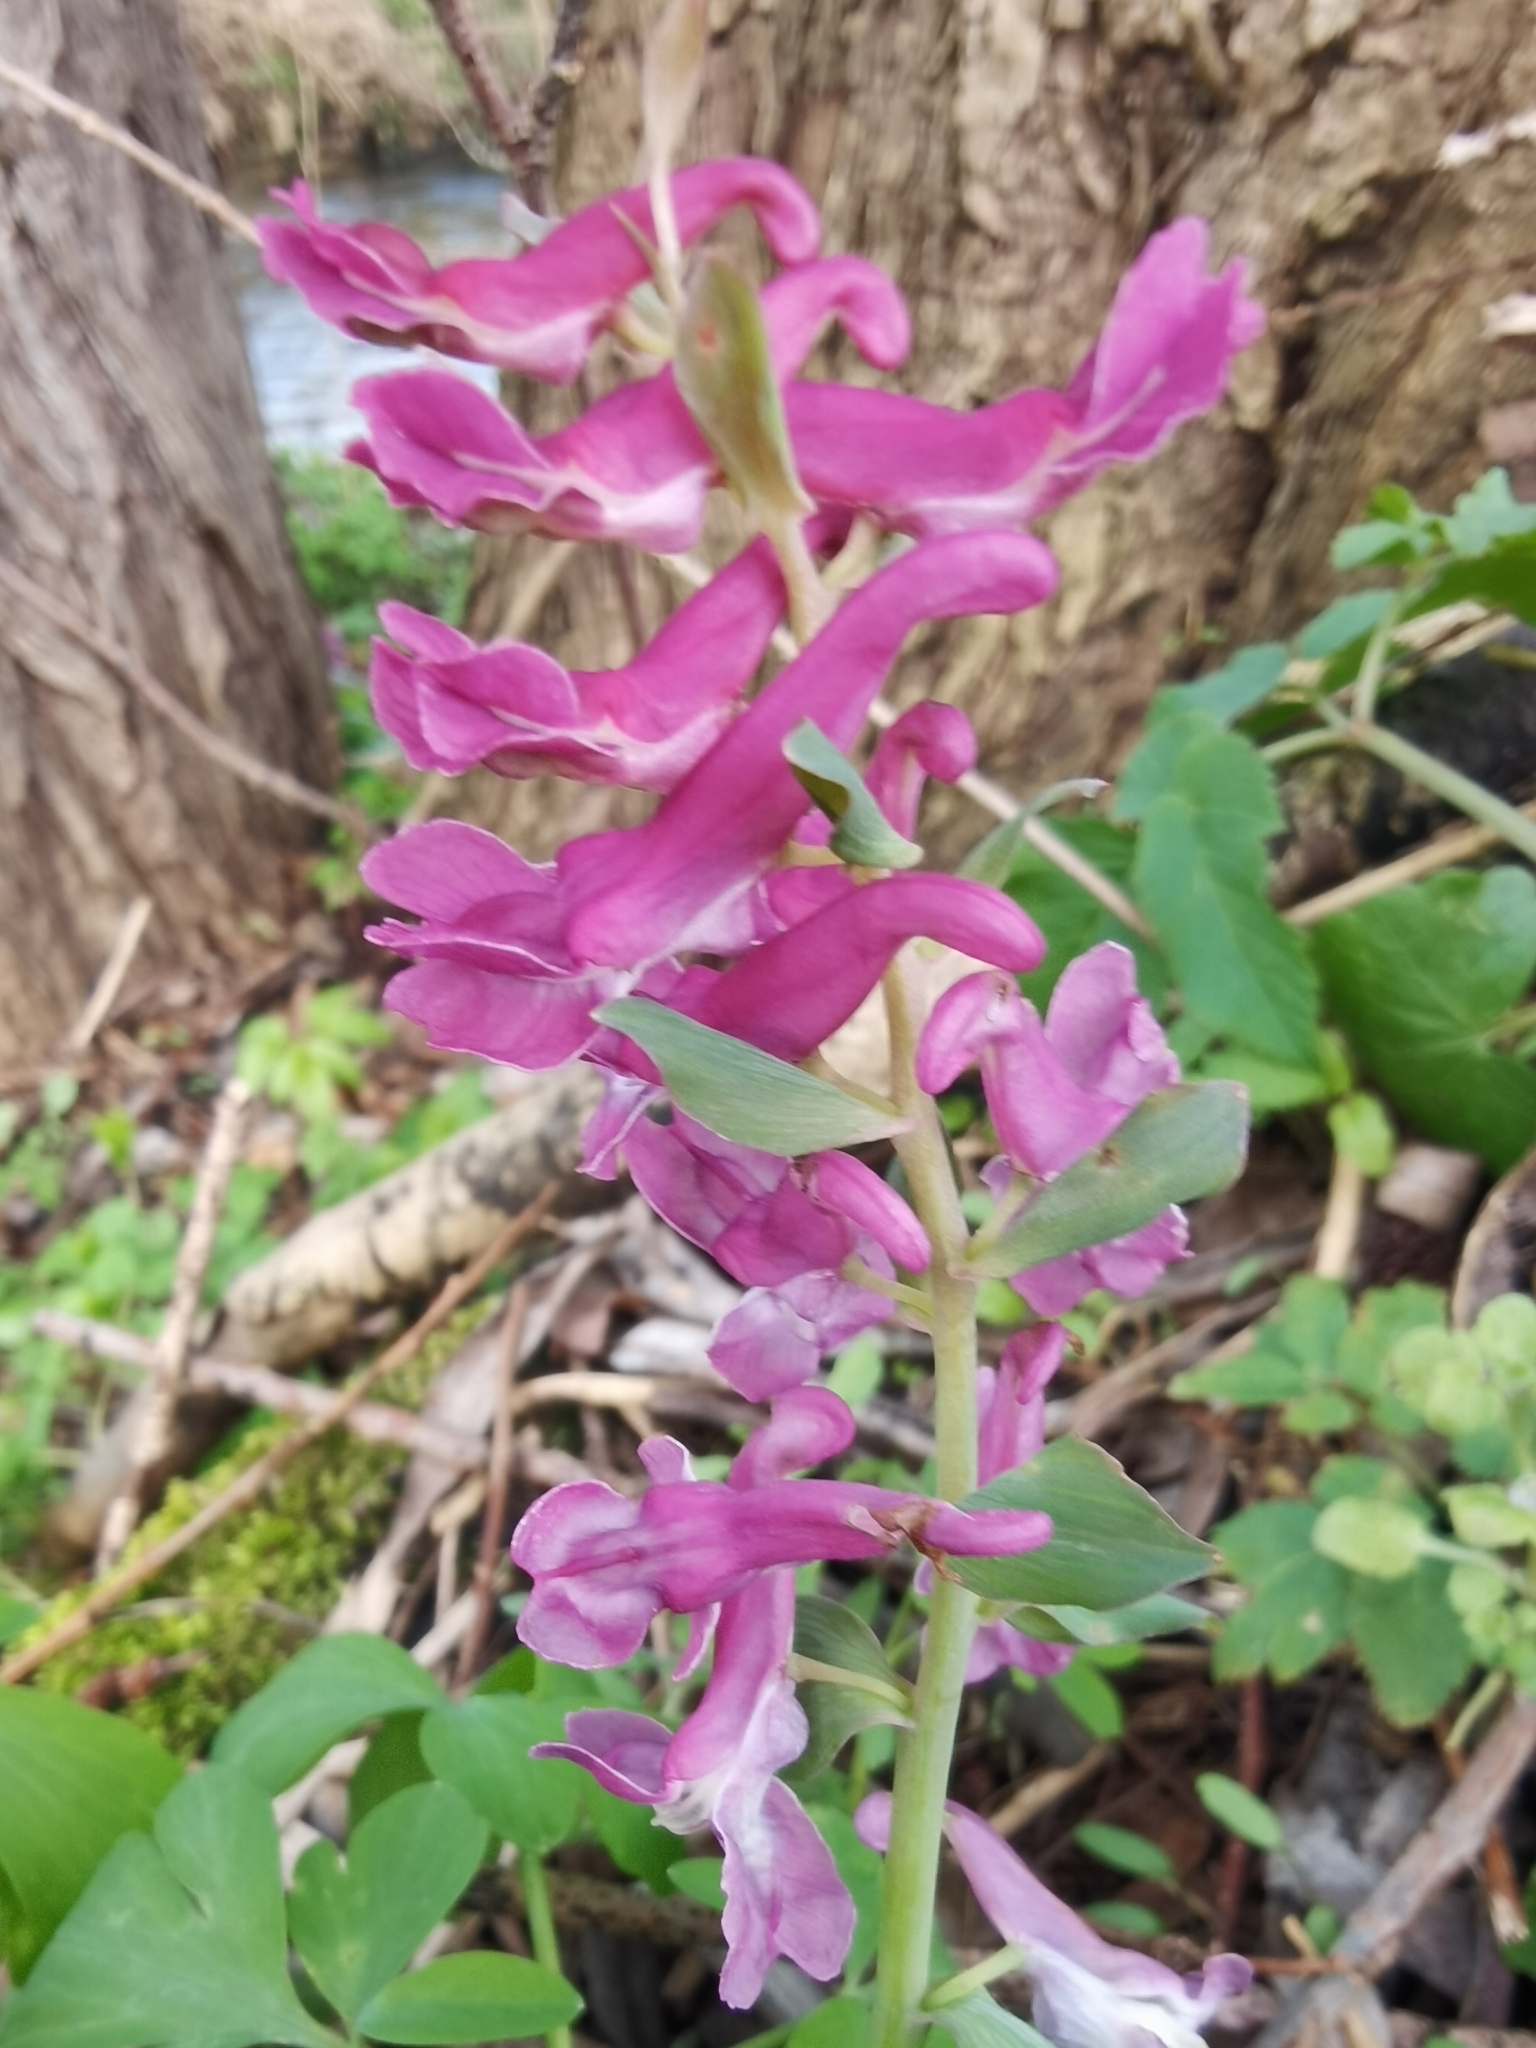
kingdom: Plantae
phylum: Tracheophyta
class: Magnoliopsida
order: Ranunculales
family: Papaveraceae
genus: Corydalis
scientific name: Corydalis cava
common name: Hollowroot
